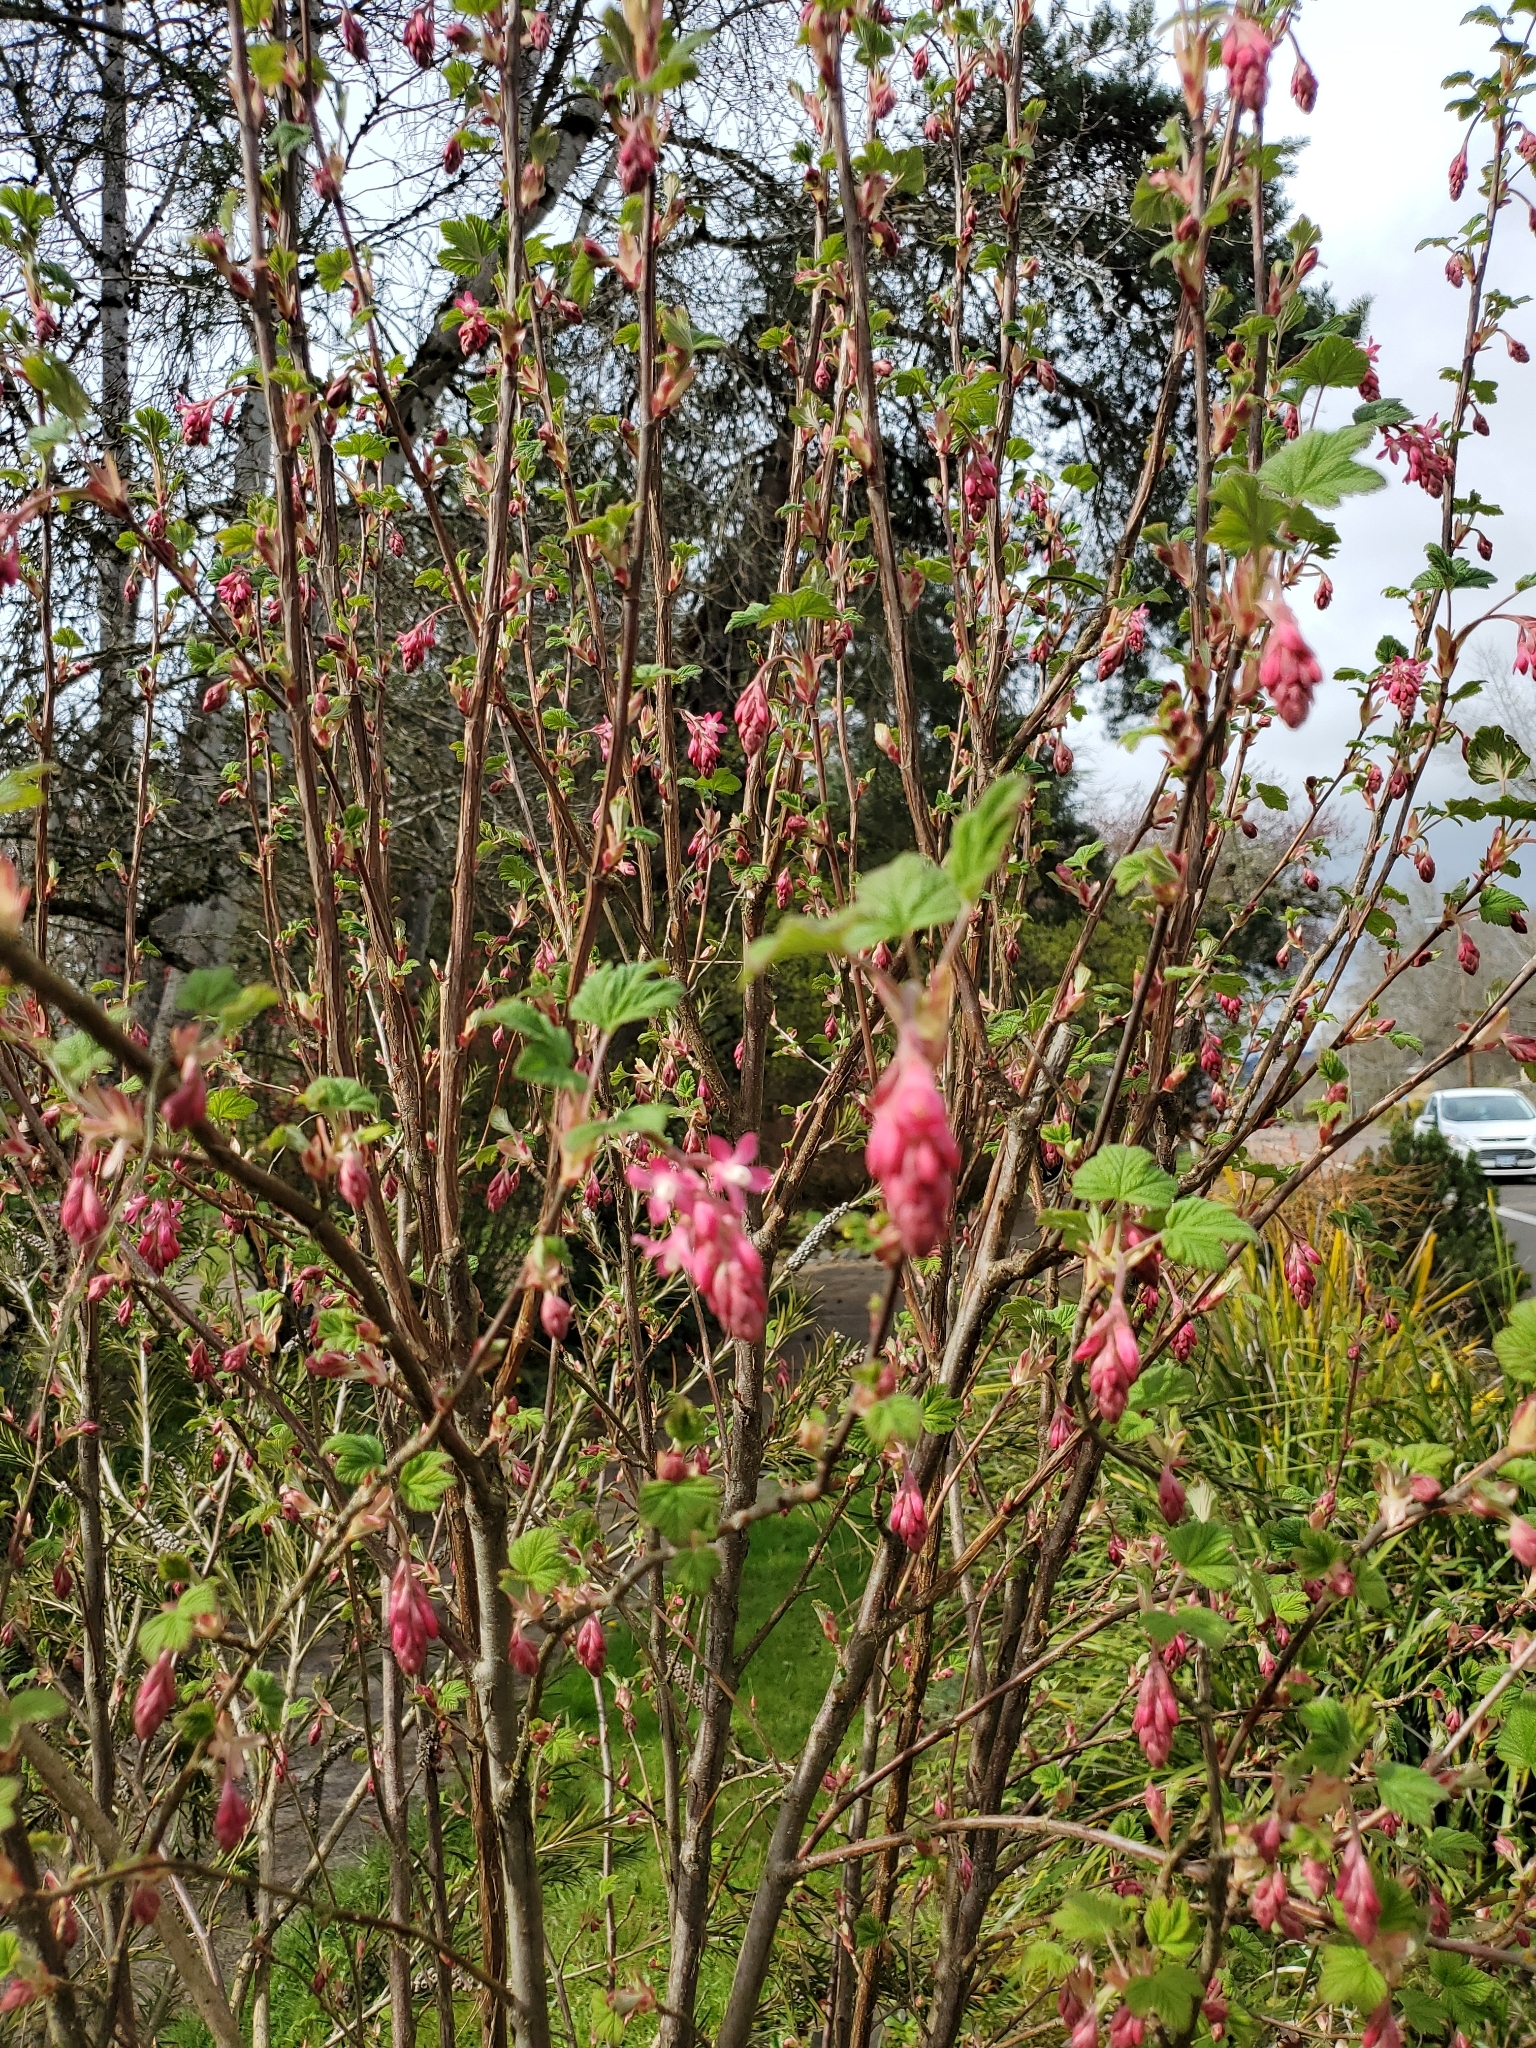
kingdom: Plantae
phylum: Tracheophyta
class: Magnoliopsida
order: Saxifragales
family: Grossulariaceae
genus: Ribes
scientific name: Ribes sanguineum
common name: Flowering currant
